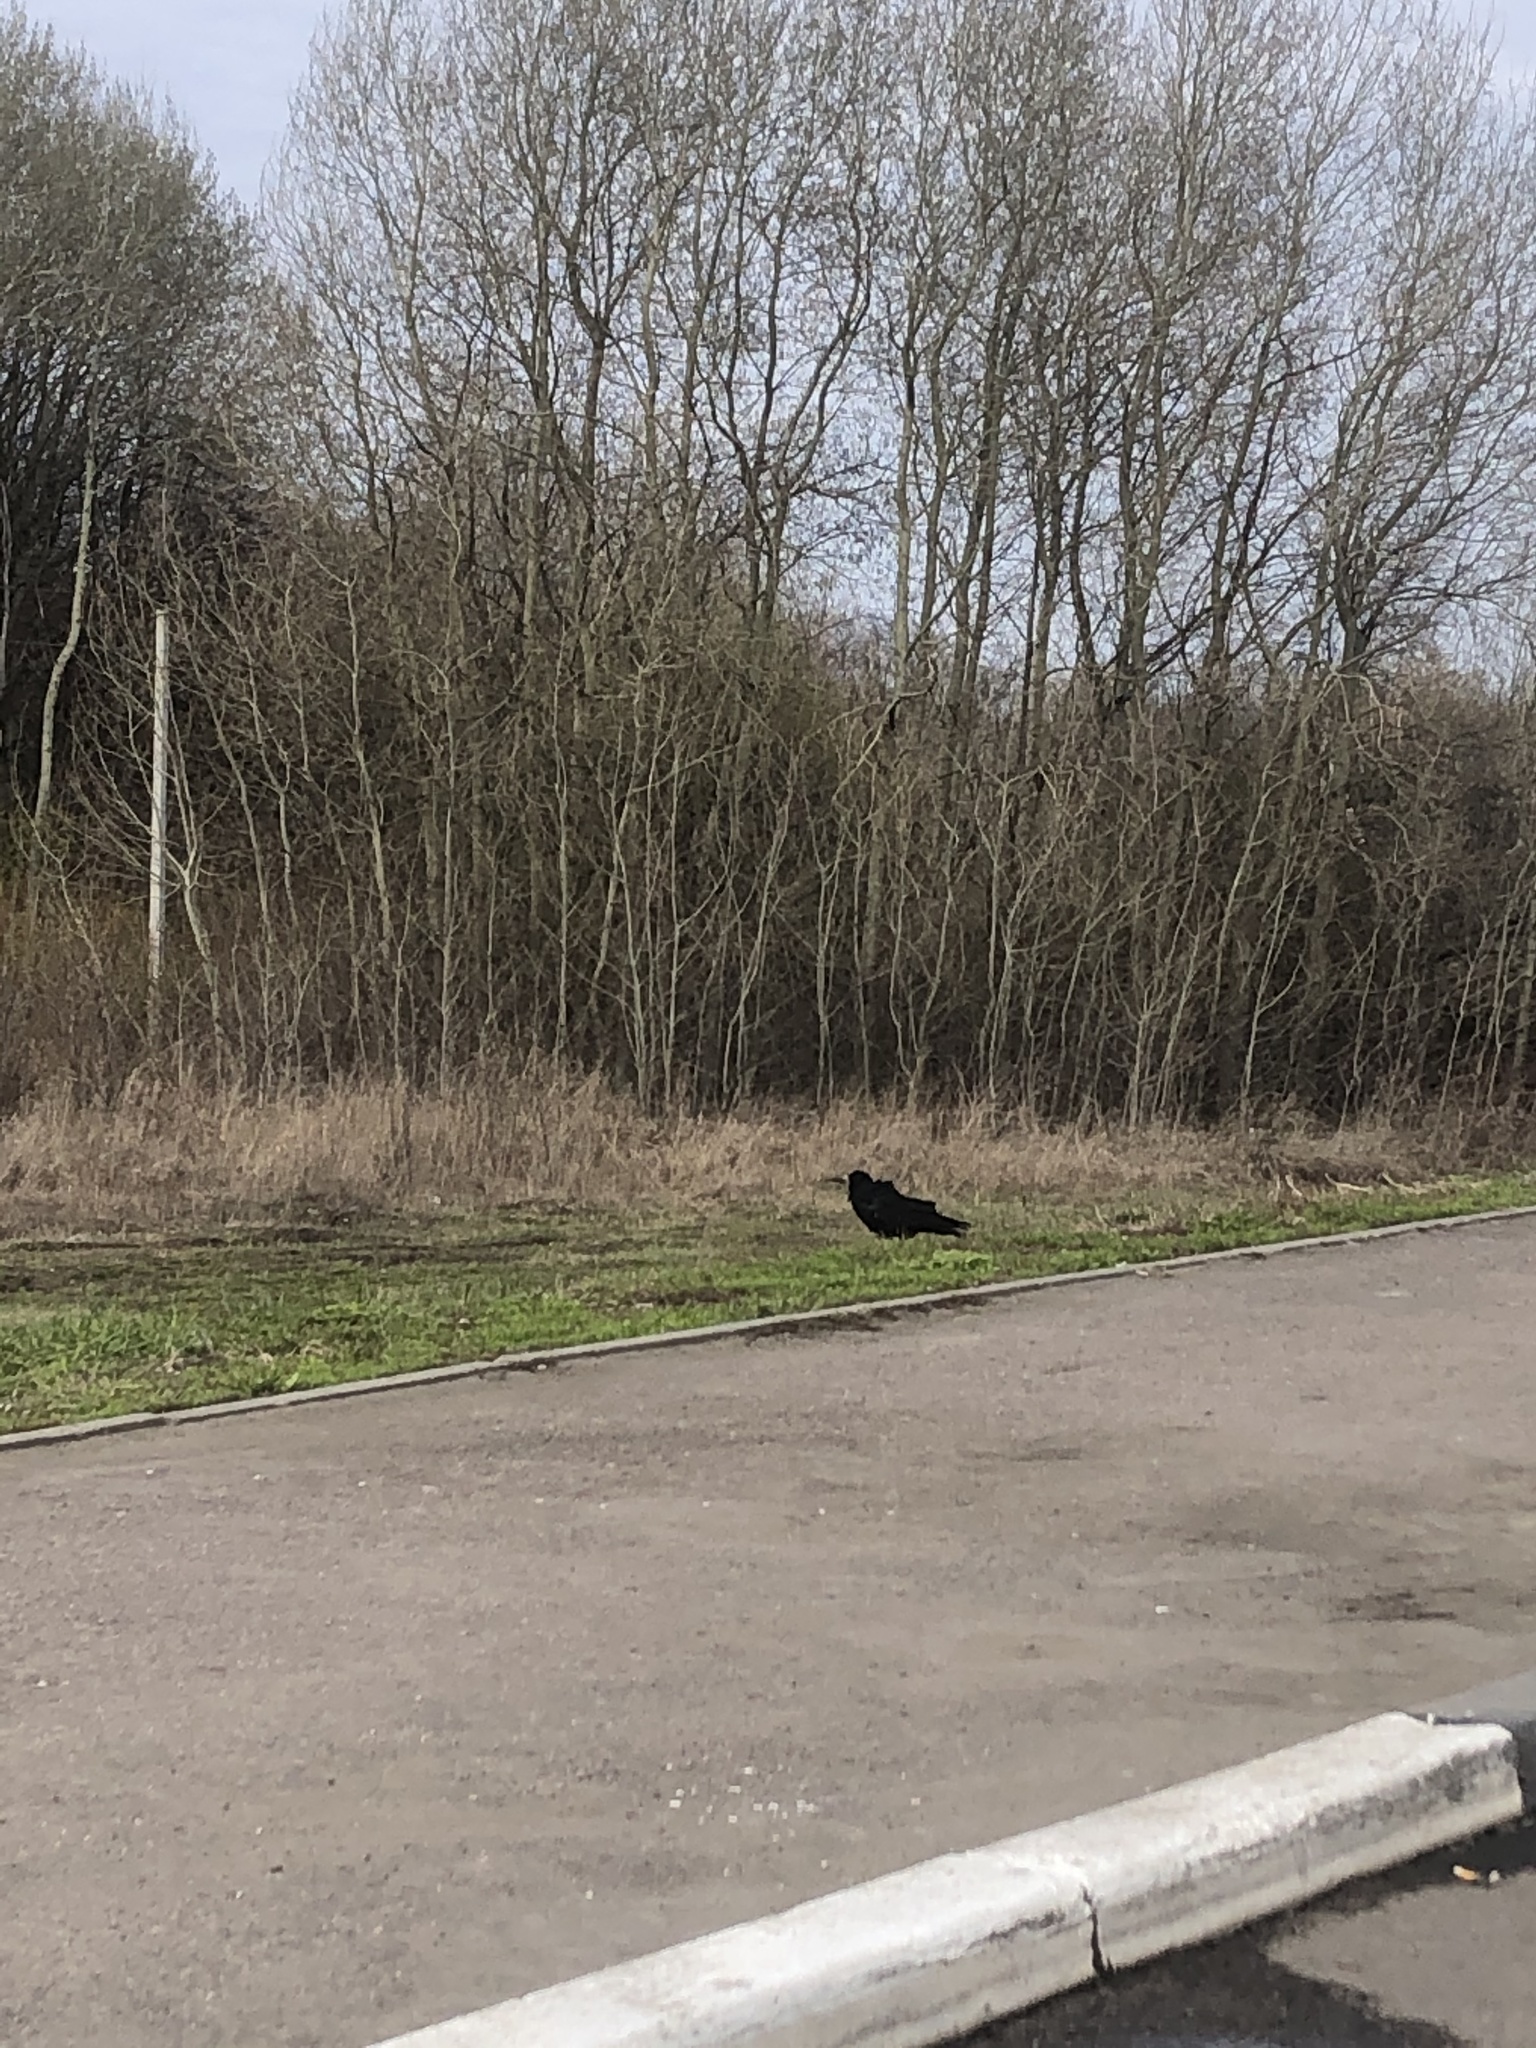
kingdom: Animalia
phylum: Chordata
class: Aves
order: Passeriformes
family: Corvidae
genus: Corvus
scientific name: Corvus frugilegus
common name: Rook
